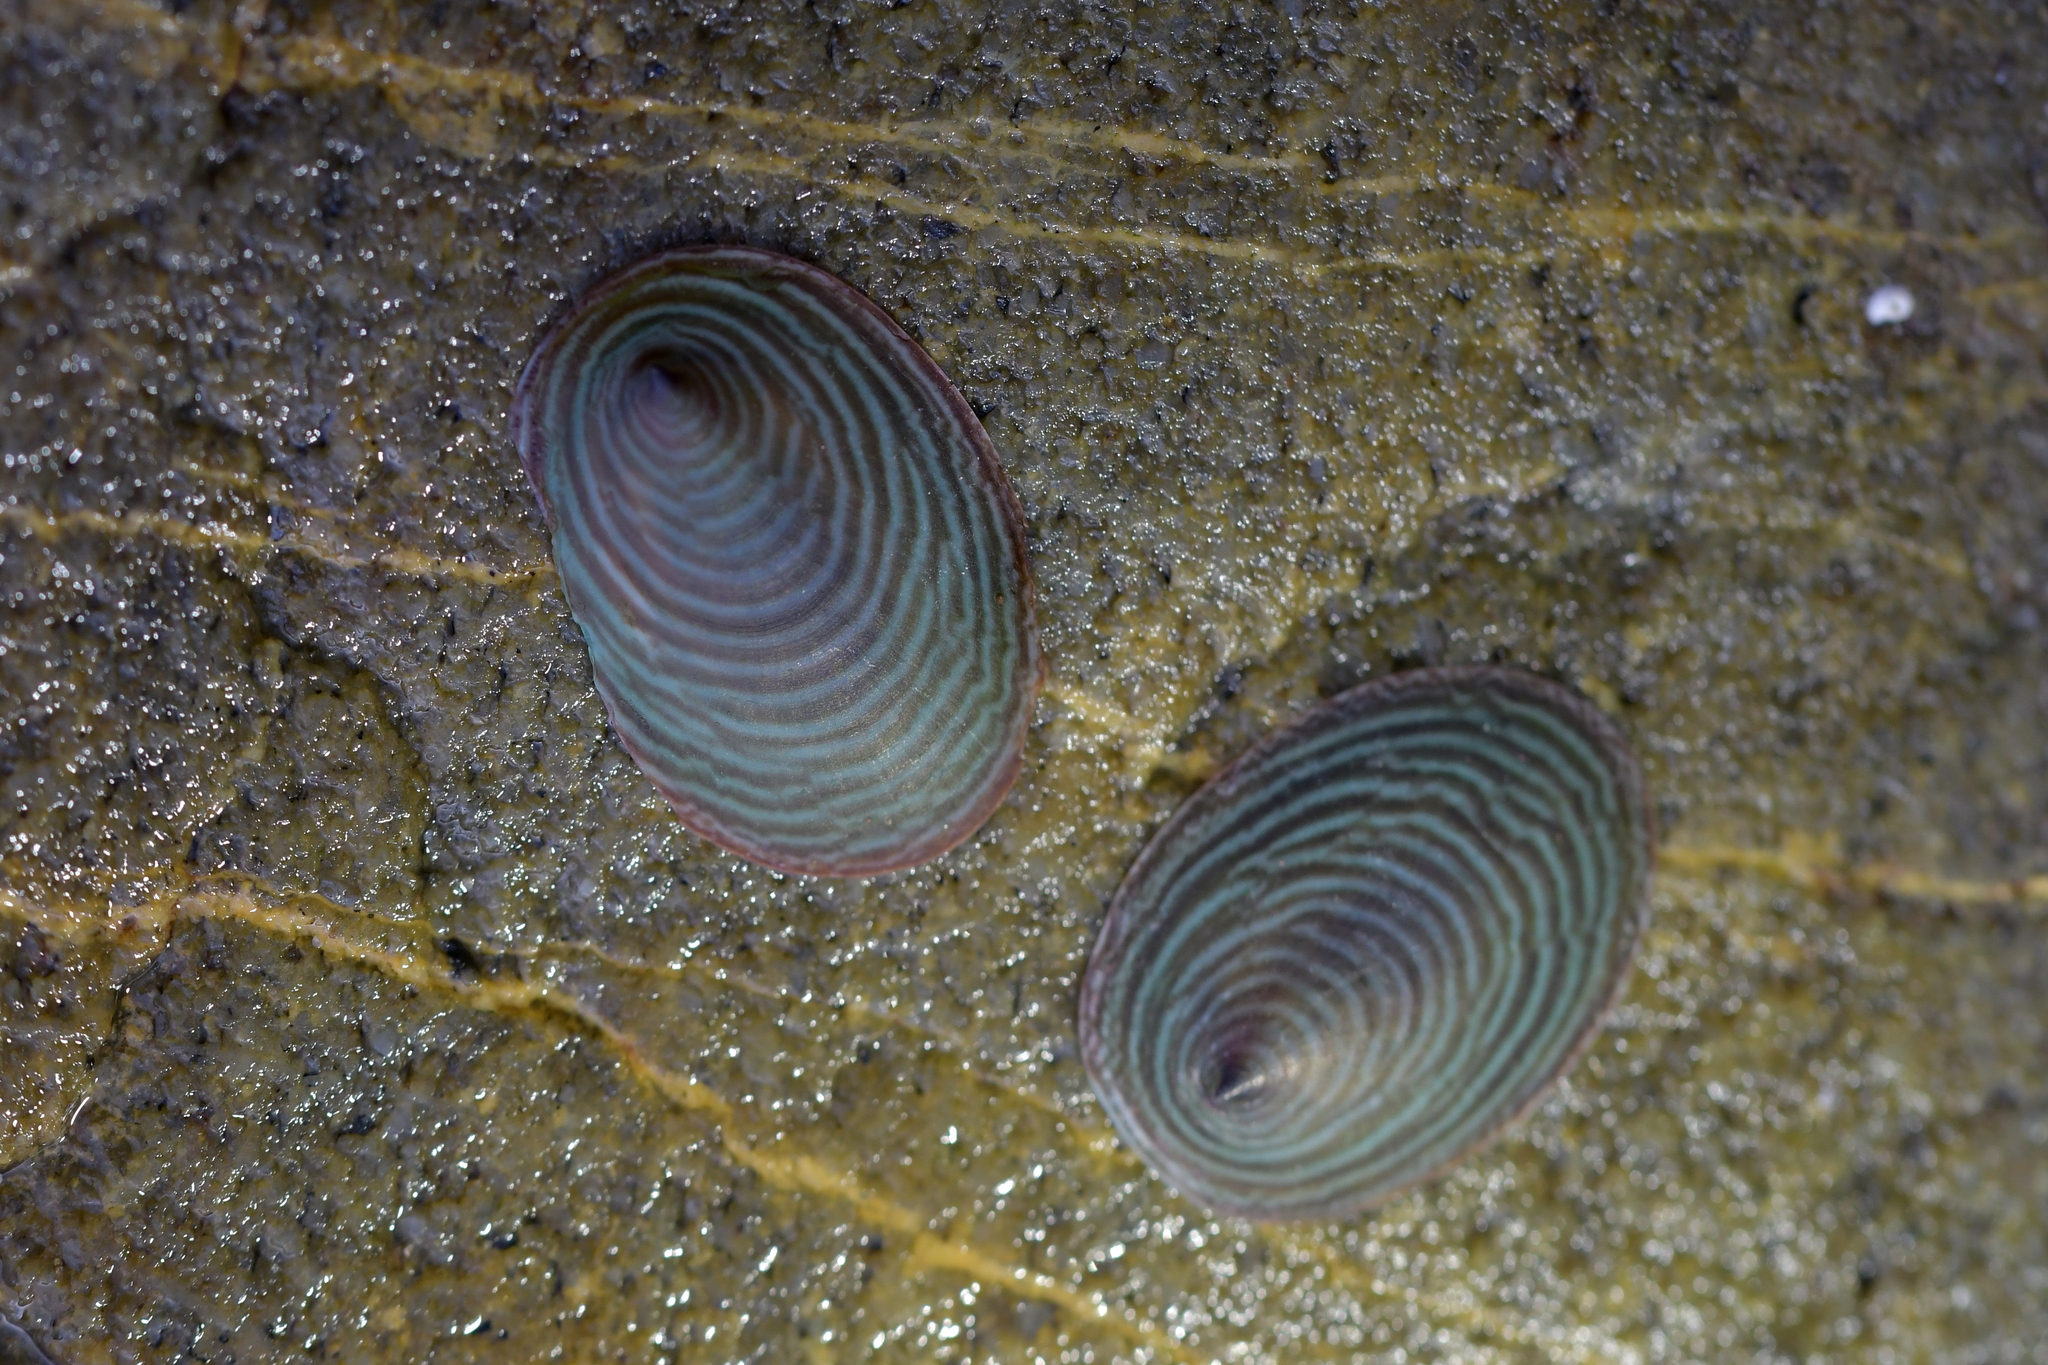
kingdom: Animalia
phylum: Mollusca
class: Gastropoda
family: Lottiidae
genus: Atalacmea
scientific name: Atalacmea fragilis
